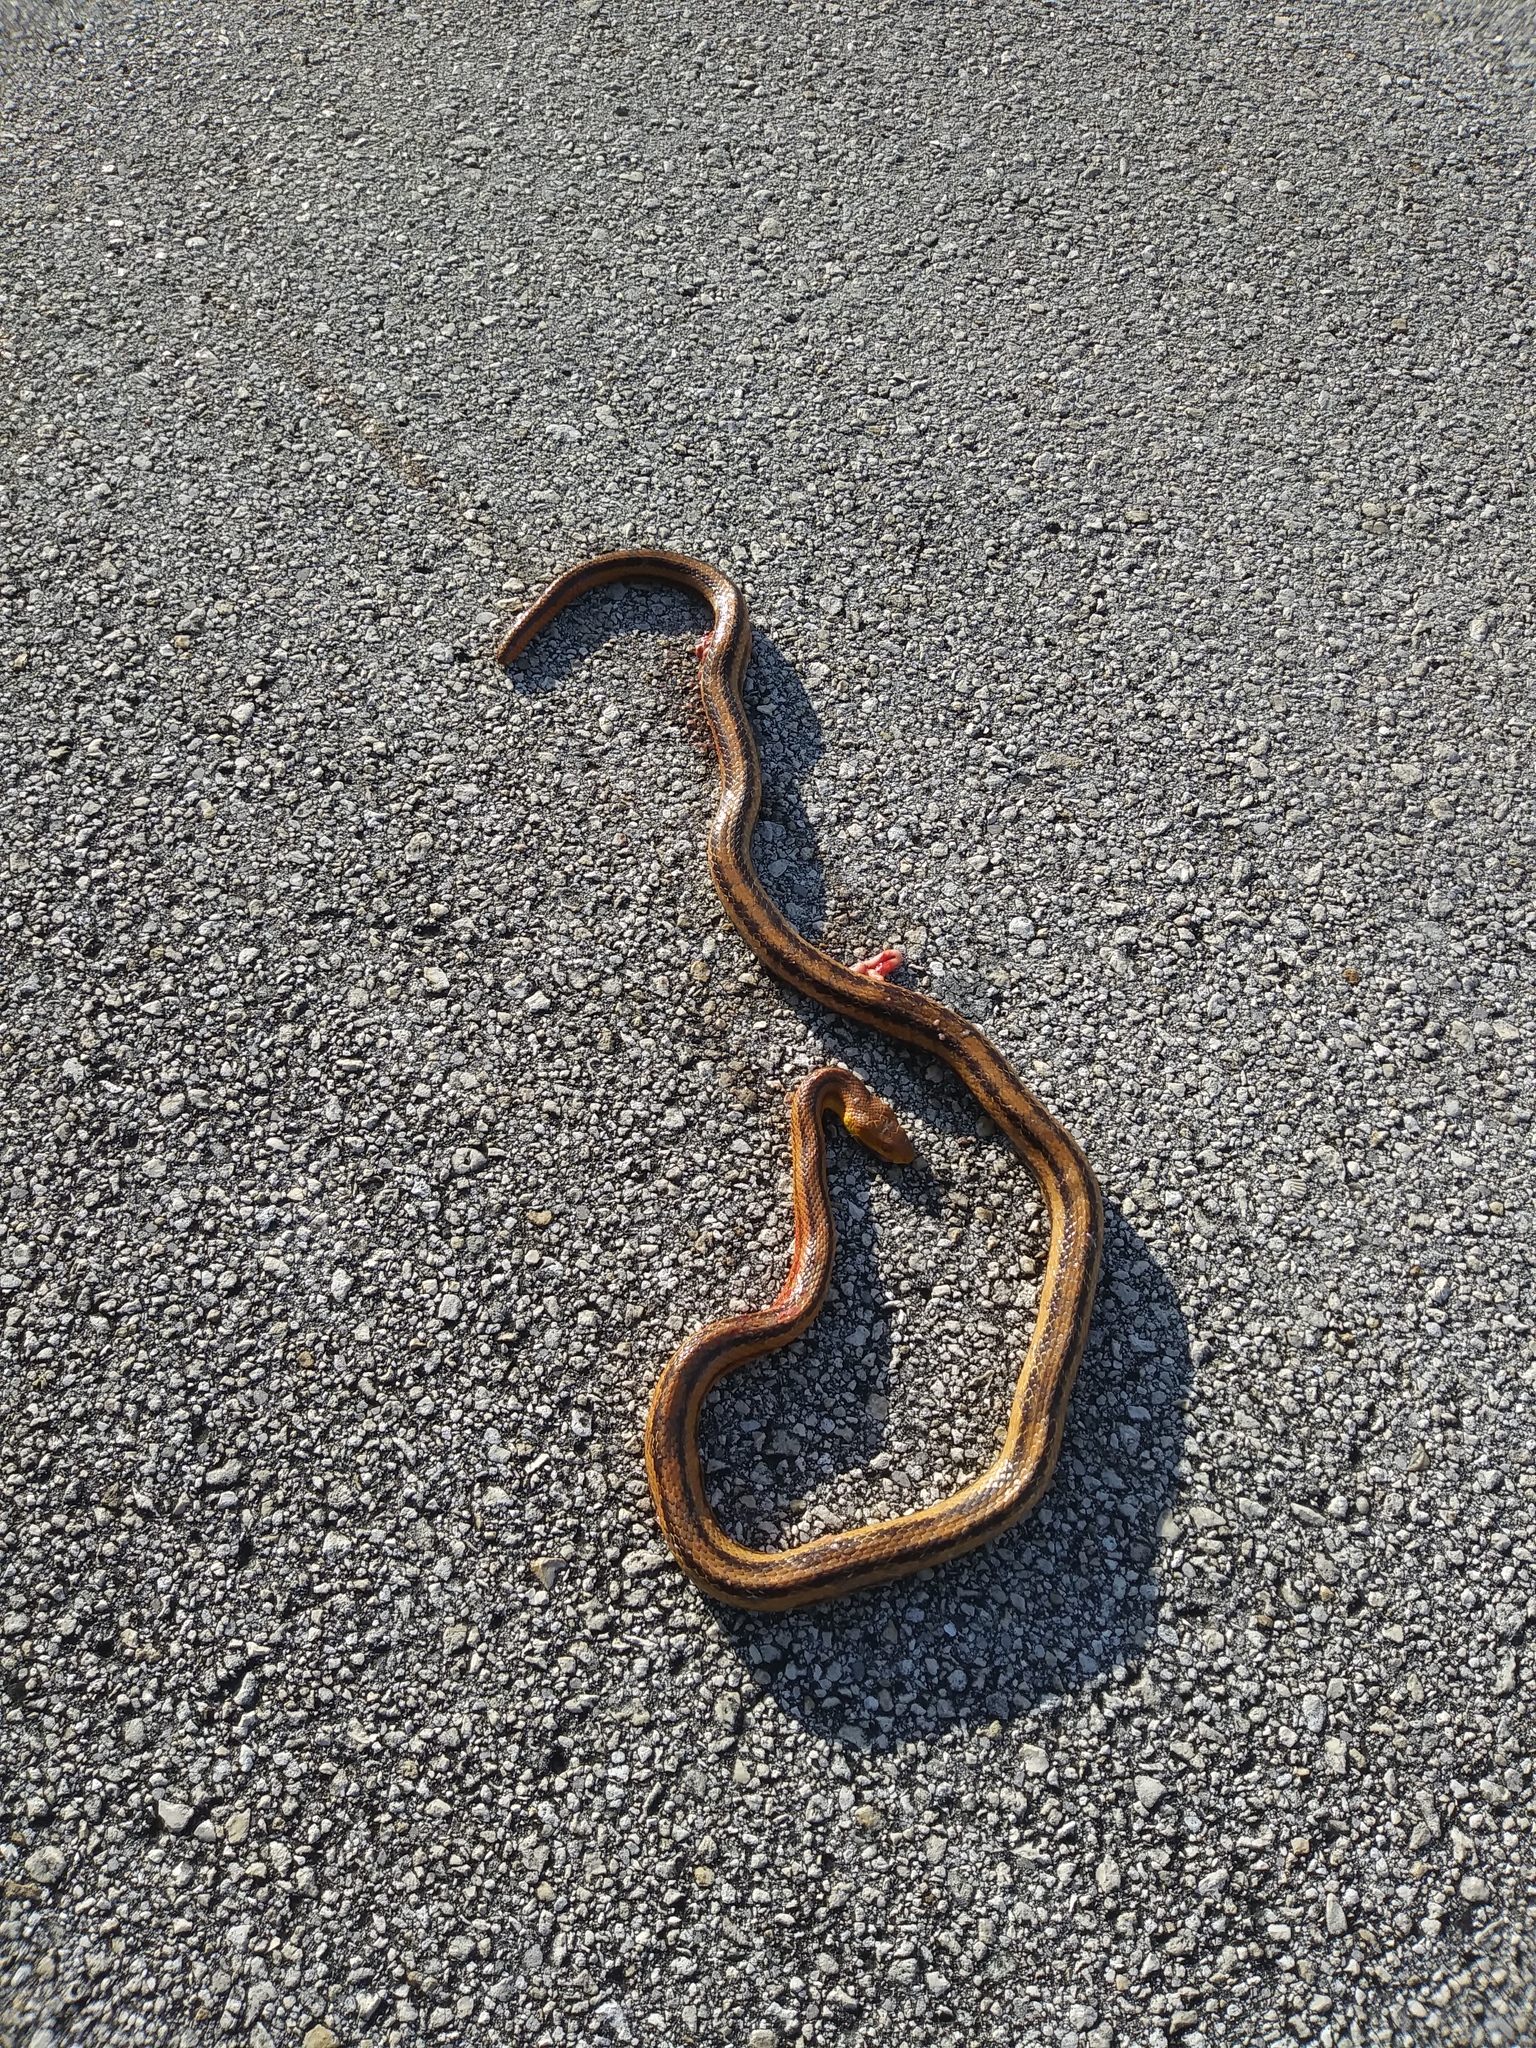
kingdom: Animalia
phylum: Chordata
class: Squamata
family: Colubridae
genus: Pantherophis
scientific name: Pantherophis alleghaniensis
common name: Eastern rat snake
